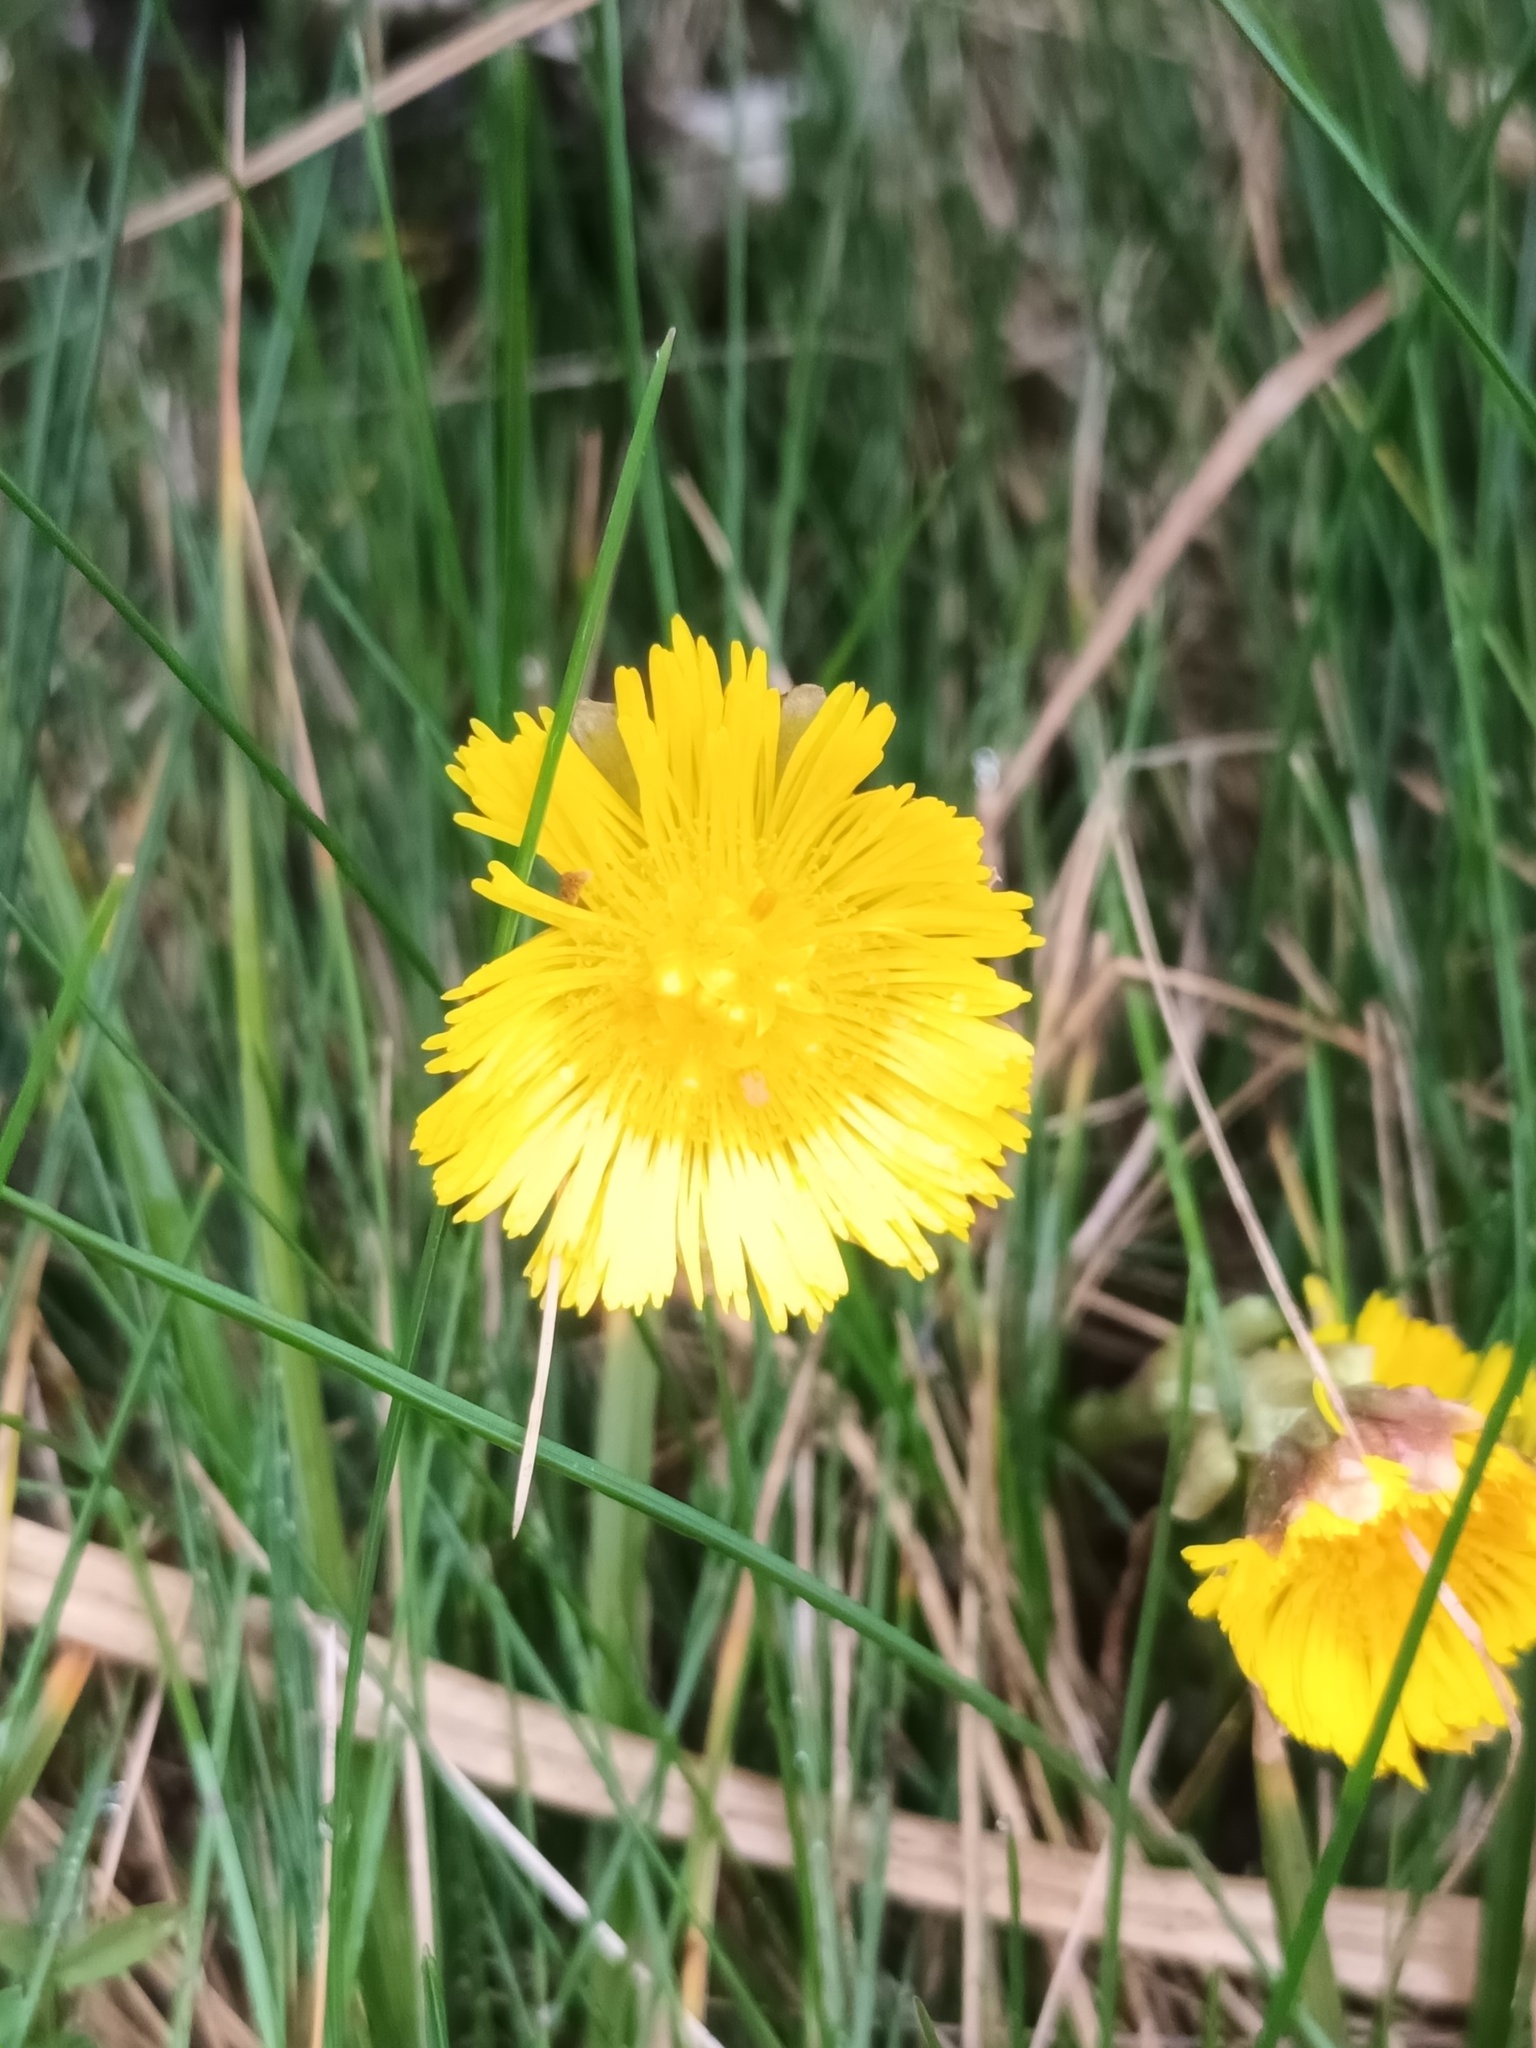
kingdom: Plantae
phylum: Tracheophyta
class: Magnoliopsida
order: Asterales
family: Asteraceae
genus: Tussilago
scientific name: Tussilago farfara
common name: Coltsfoot
